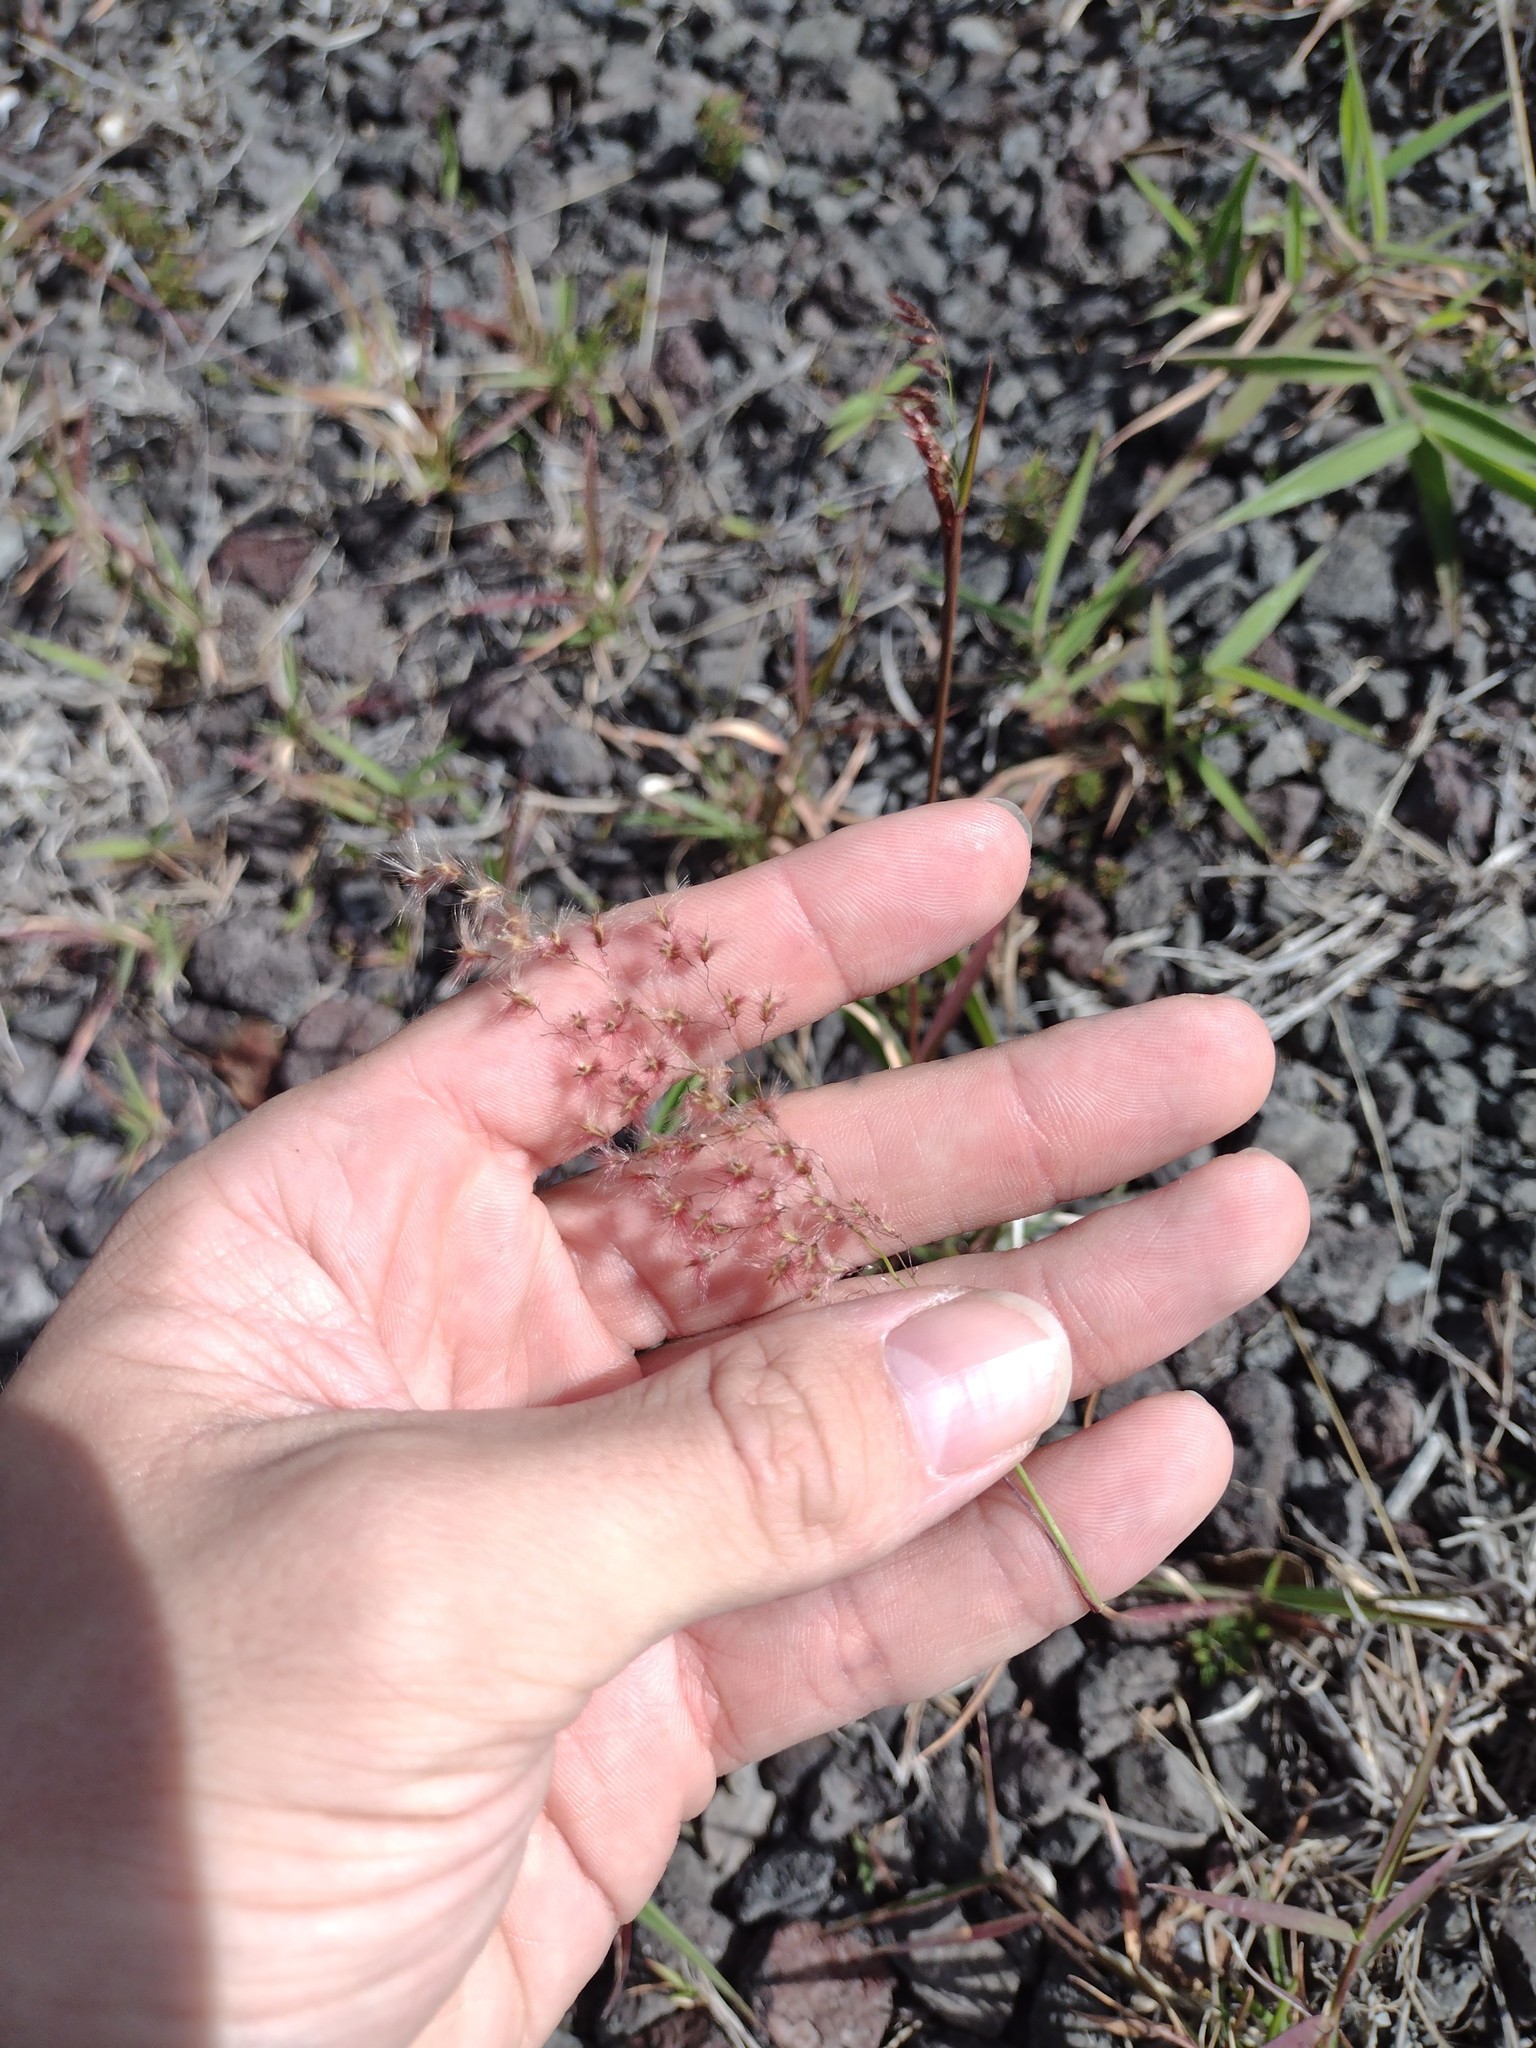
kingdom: Plantae
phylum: Tracheophyta
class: Liliopsida
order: Poales
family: Poaceae
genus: Melinis
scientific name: Melinis repens
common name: Rose natal grass
